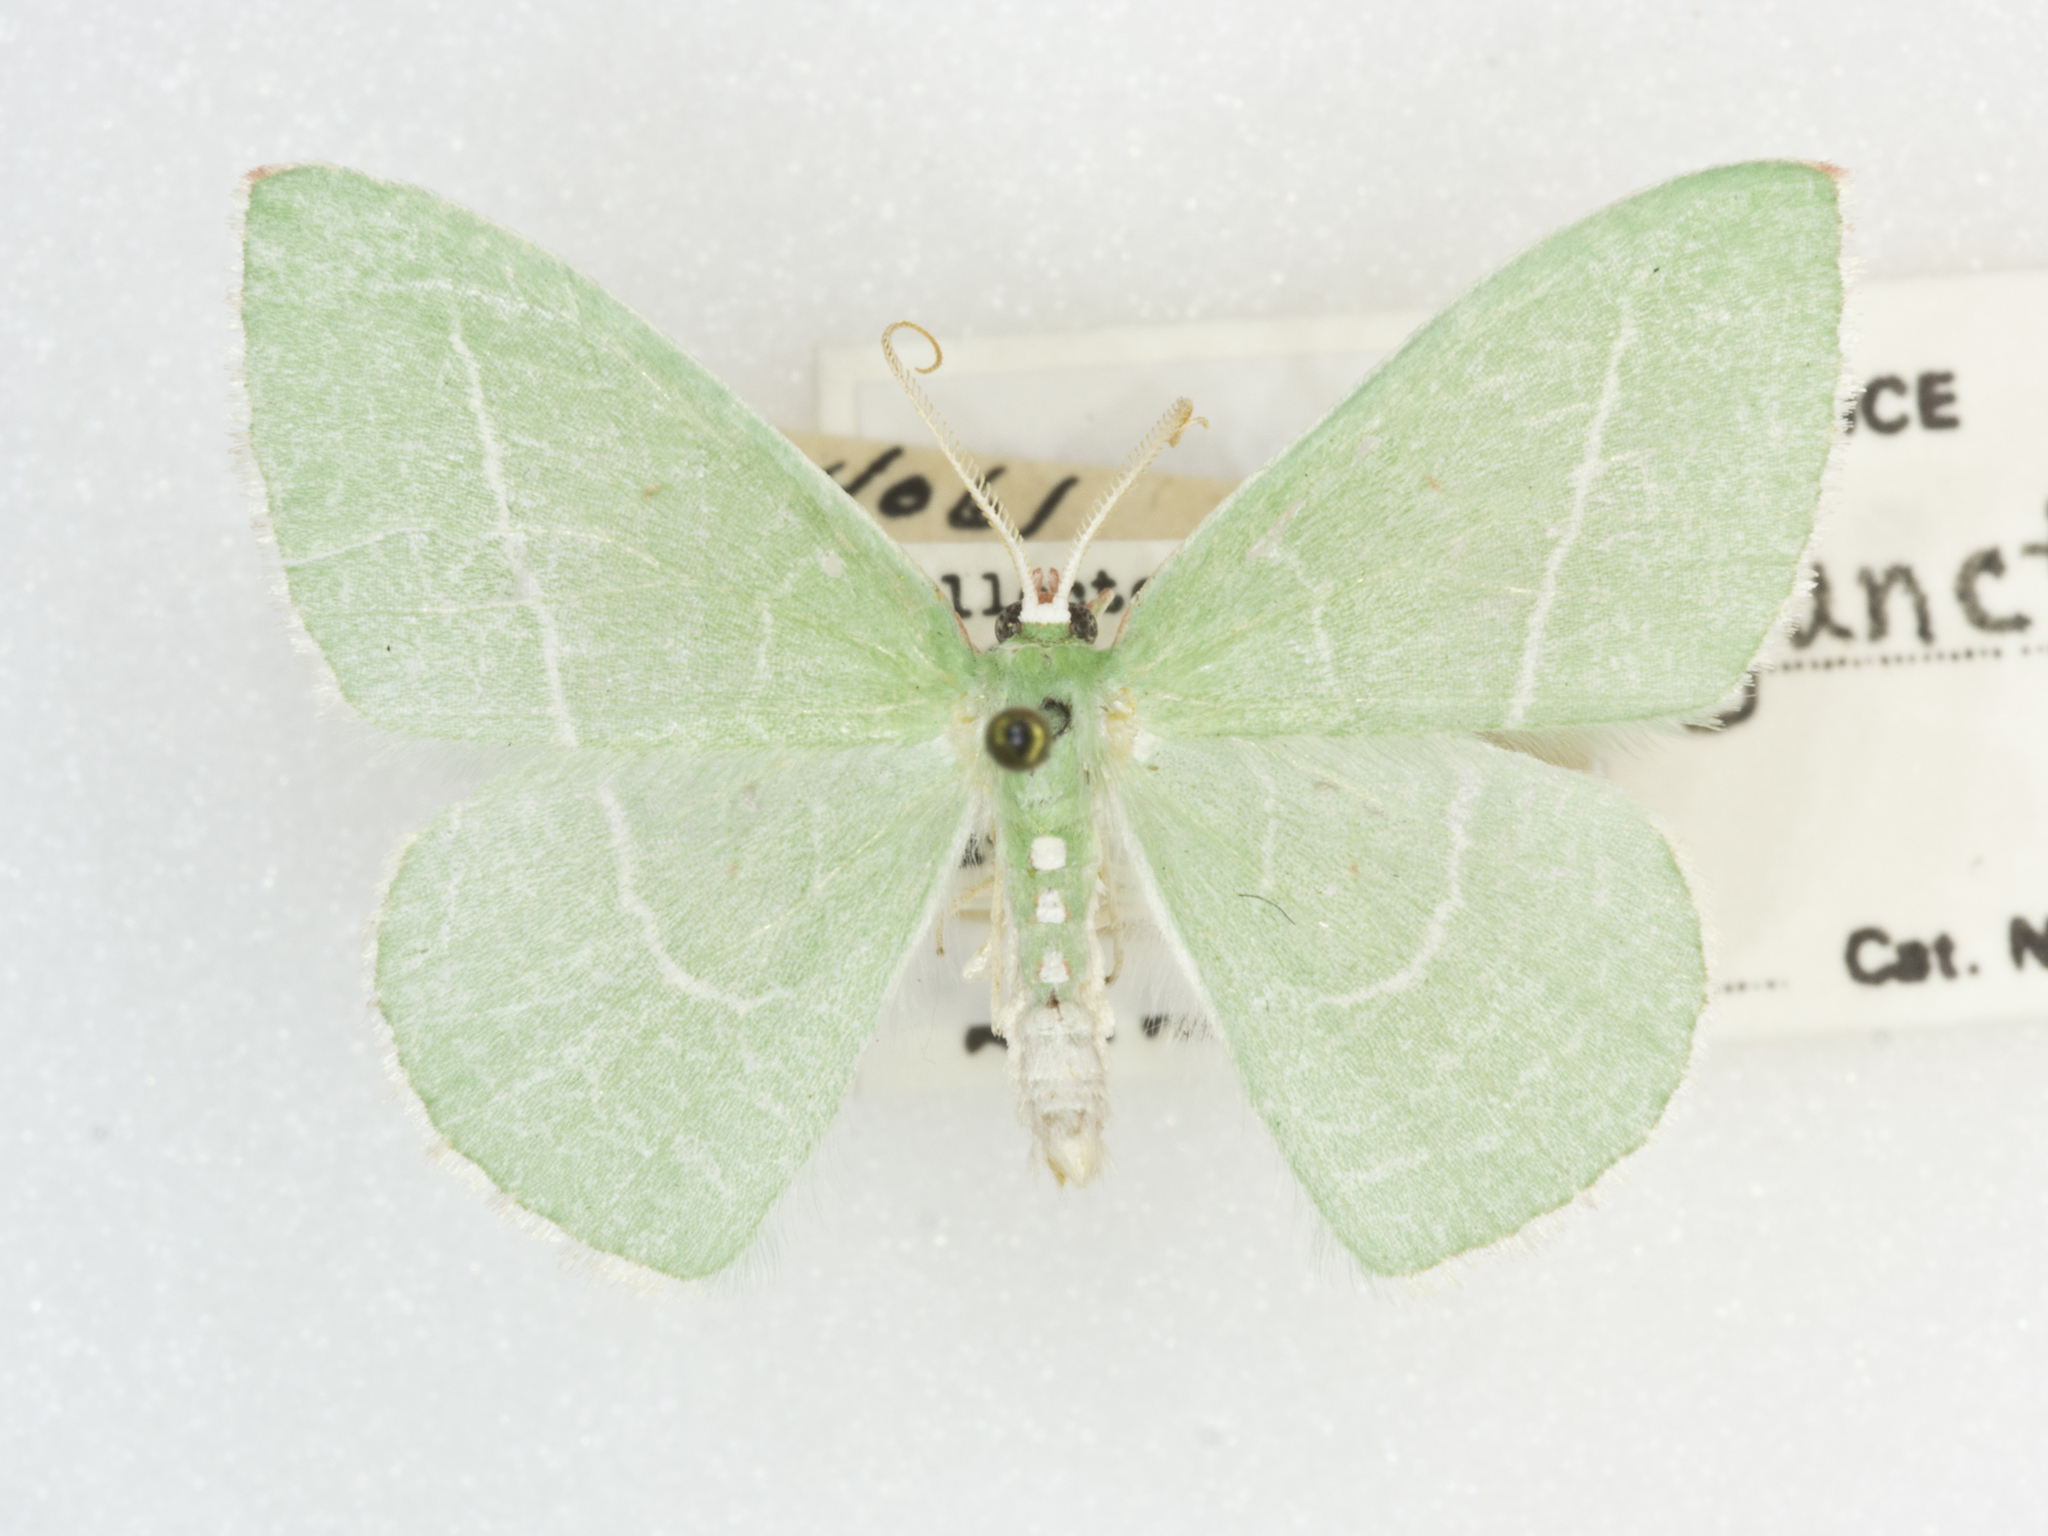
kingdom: Animalia
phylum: Arthropoda
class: Insecta
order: Lepidoptera
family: Geometridae
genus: Nemoria
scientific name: Nemoria unitaria
